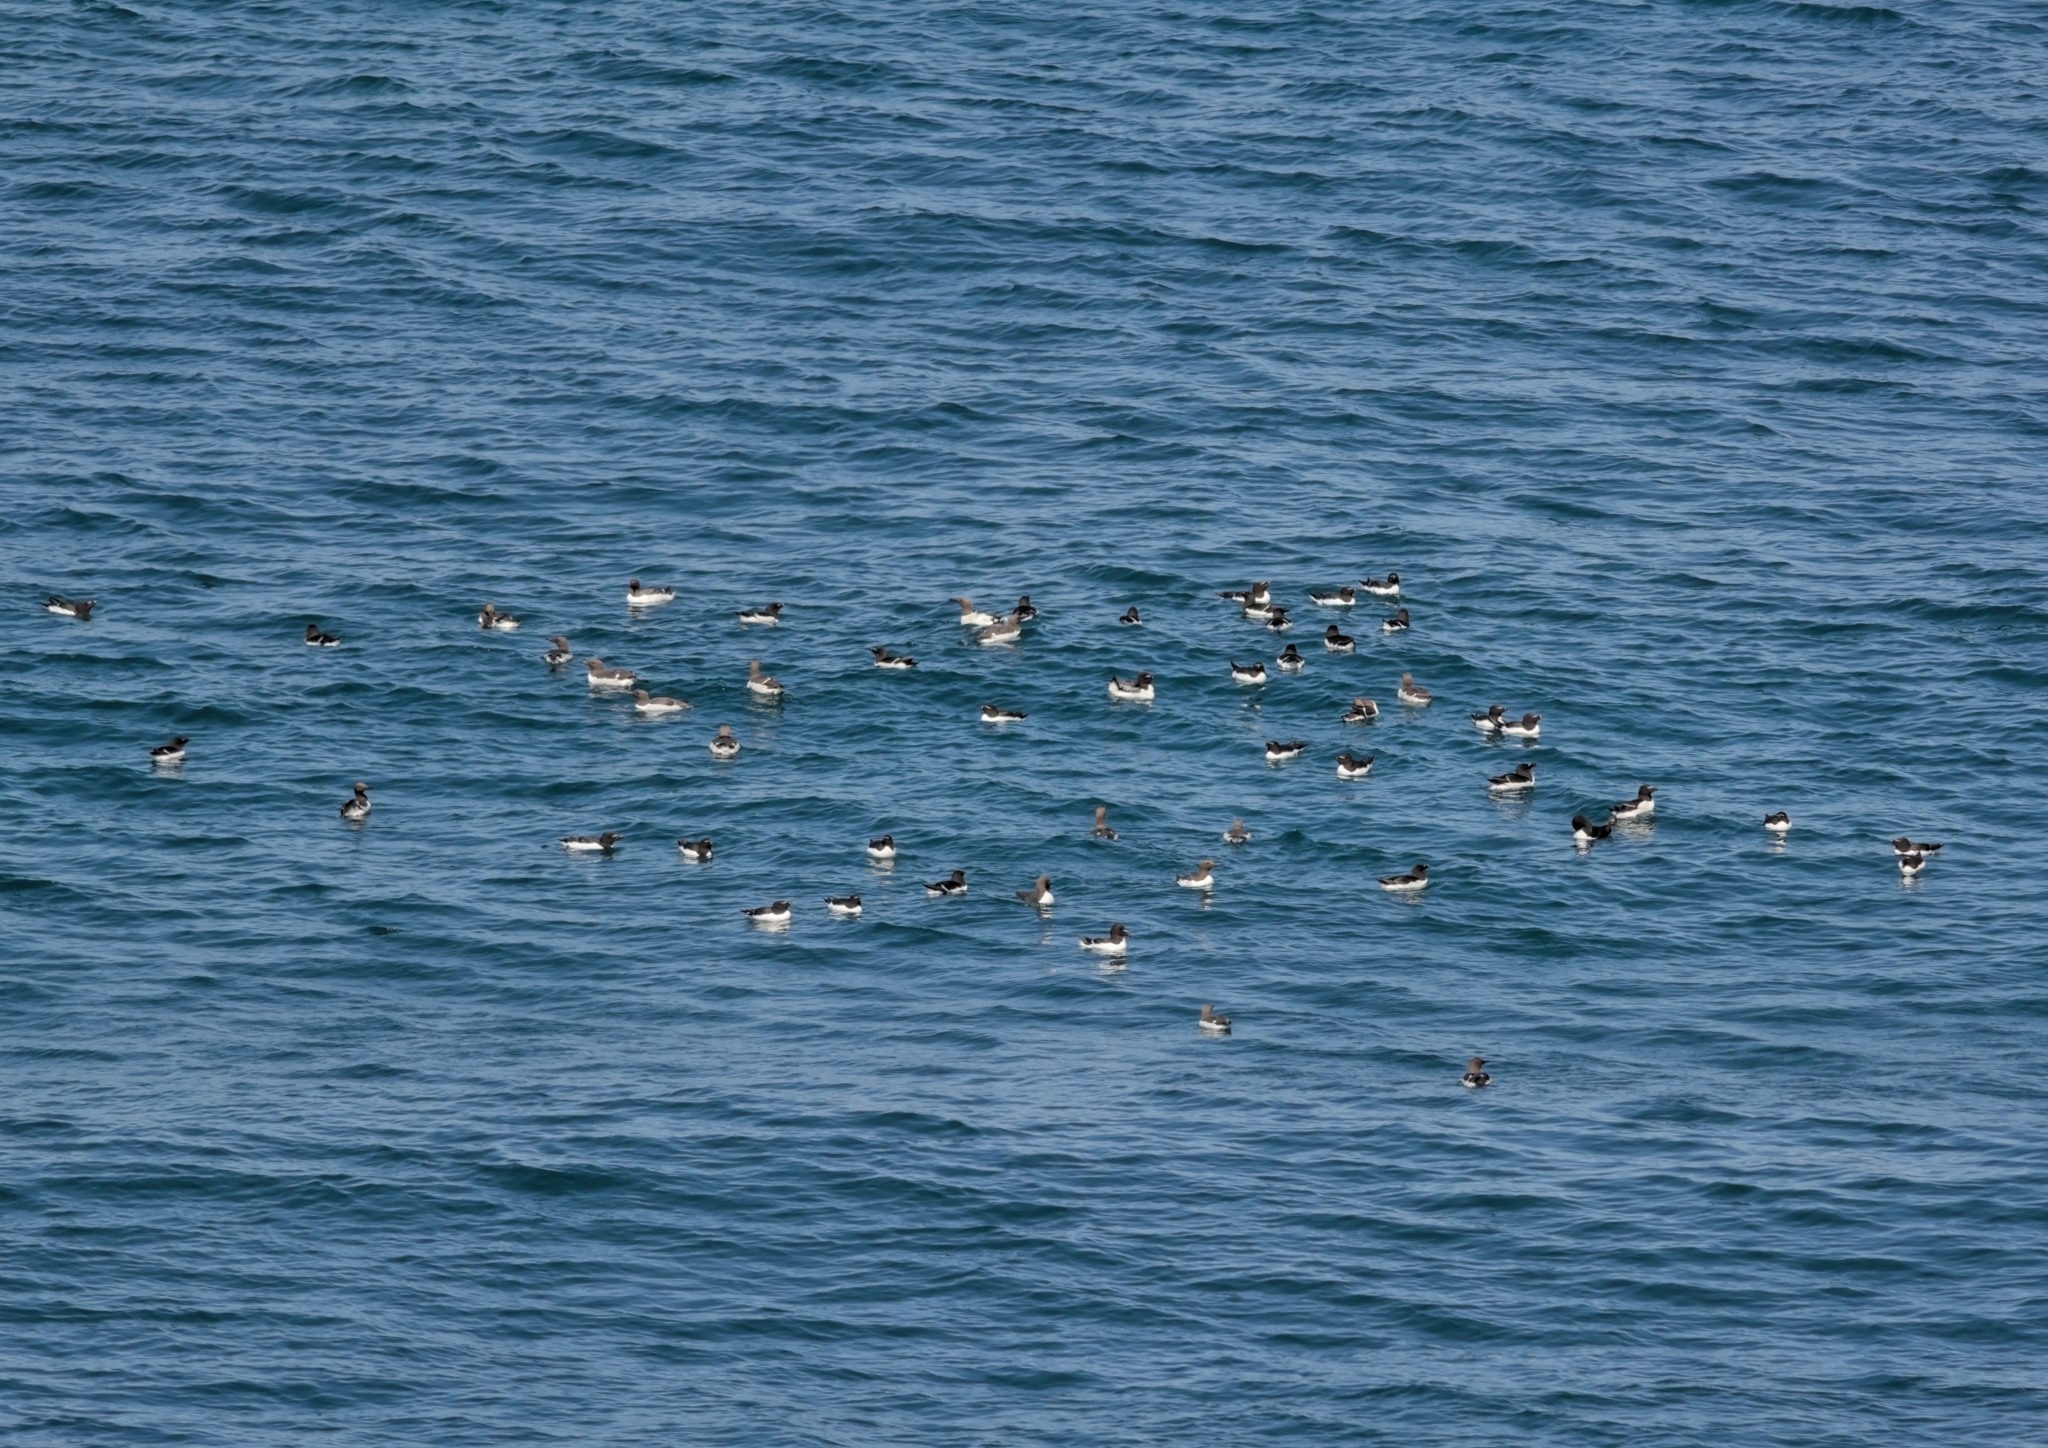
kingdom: Animalia
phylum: Chordata
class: Aves
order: Charadriiformes
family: Alcidae
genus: Alca
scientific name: Alca torda
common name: Razorbill
